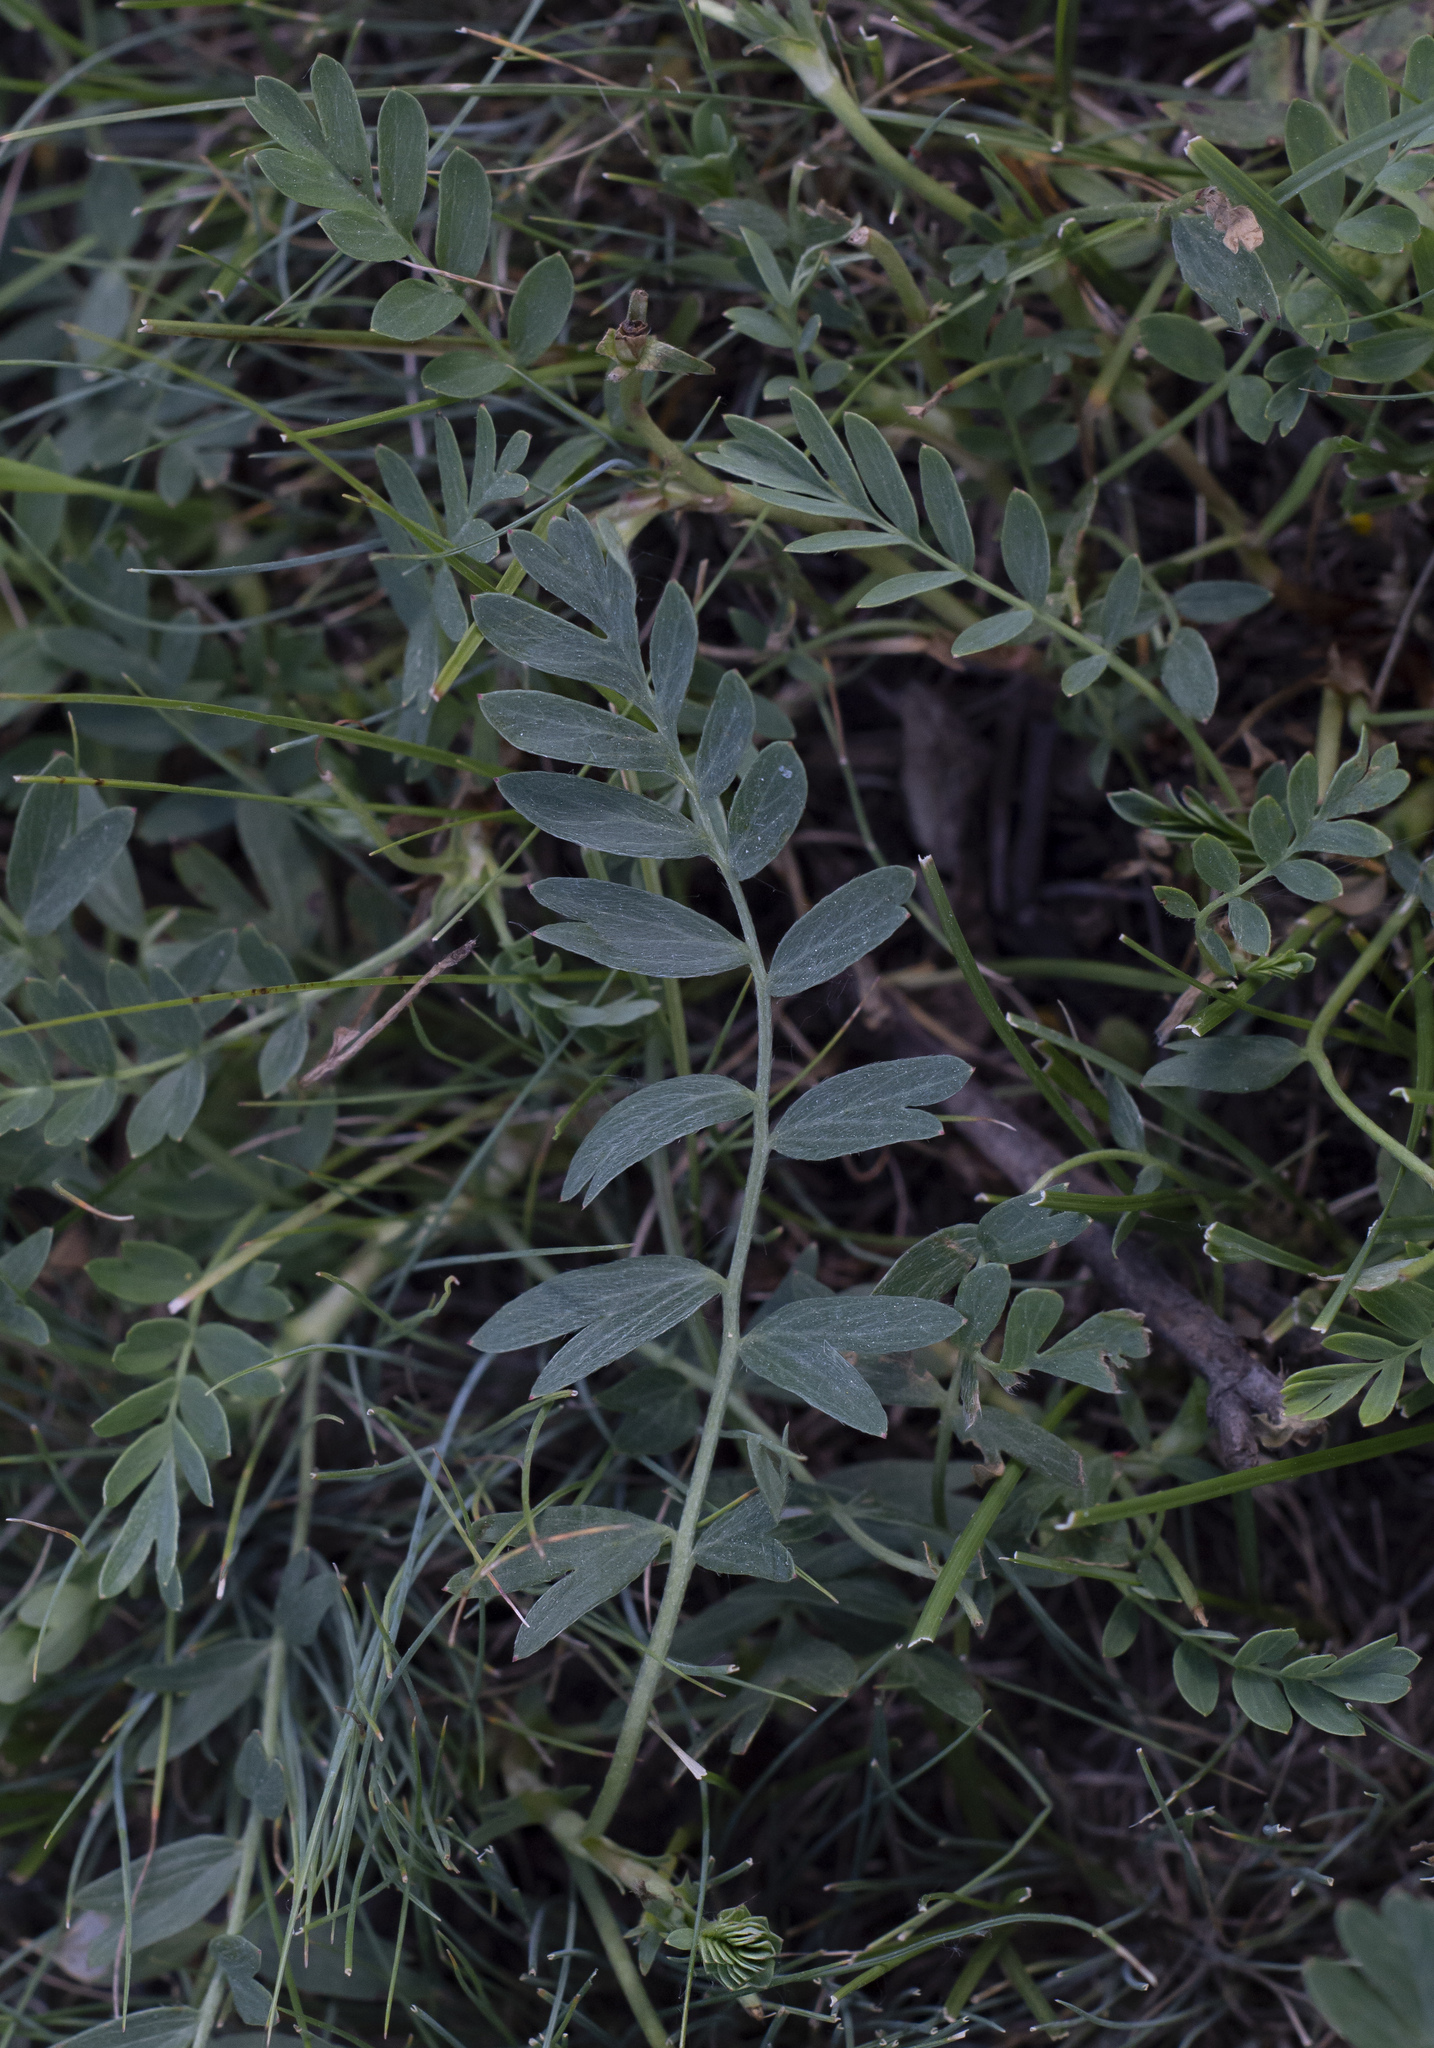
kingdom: Plantae
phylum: Tracheophyta
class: Magnoliopsida
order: Rosales
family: Rosaceae
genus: Sibbaldianthe
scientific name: Sibbaldianthe bifurca
